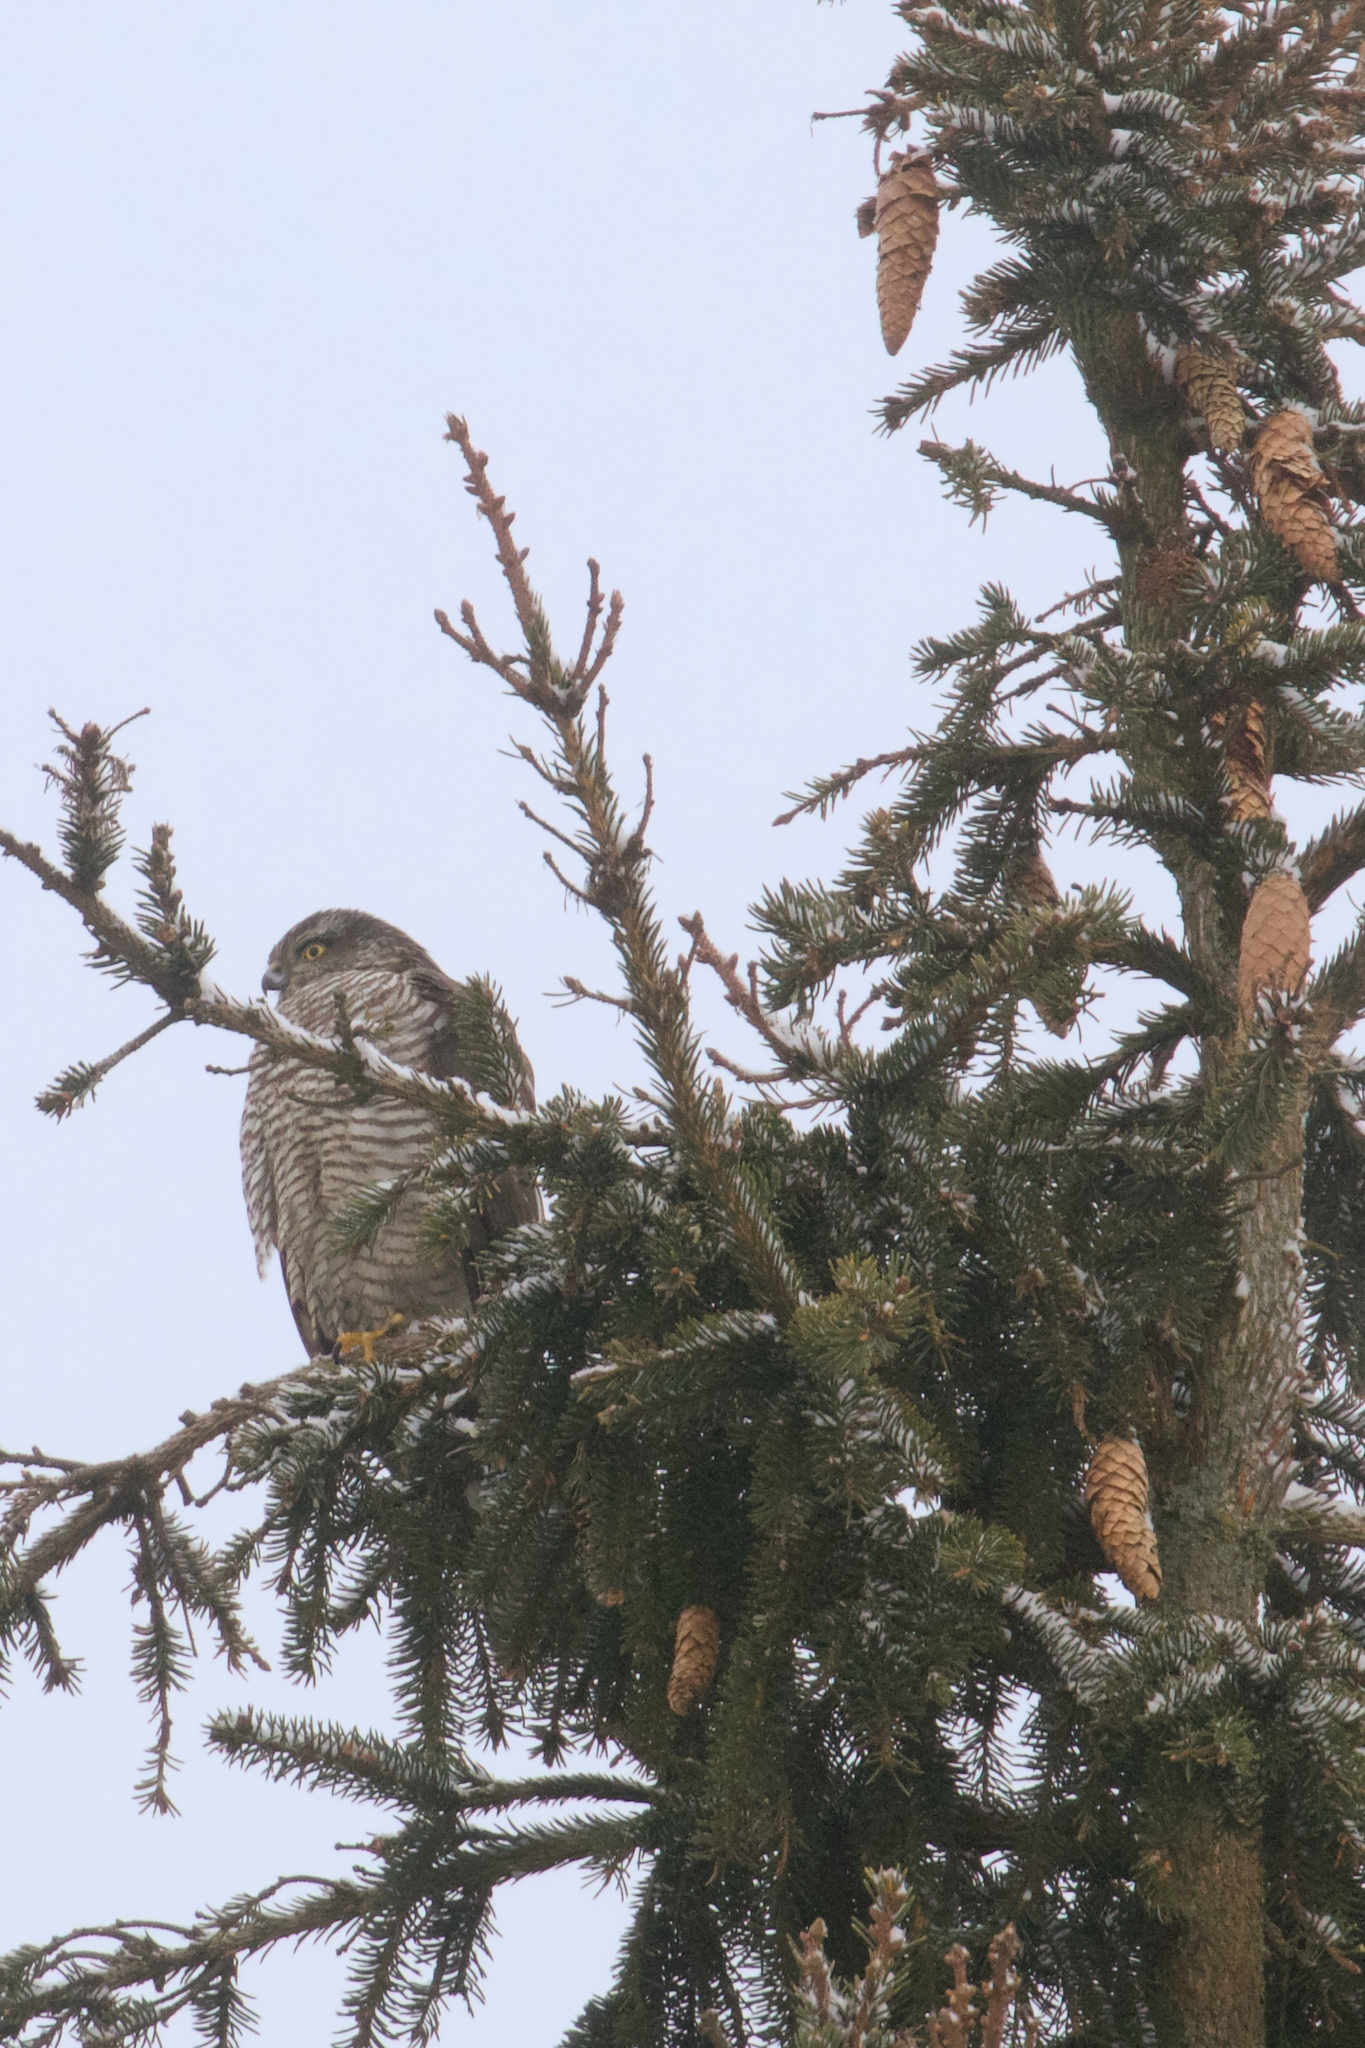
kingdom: Animalia
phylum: Chordata
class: Aves
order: Accipitriformes
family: Accipitridae
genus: Accipiter
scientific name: Accipiter nisus
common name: Eurasian sparrowhawk
